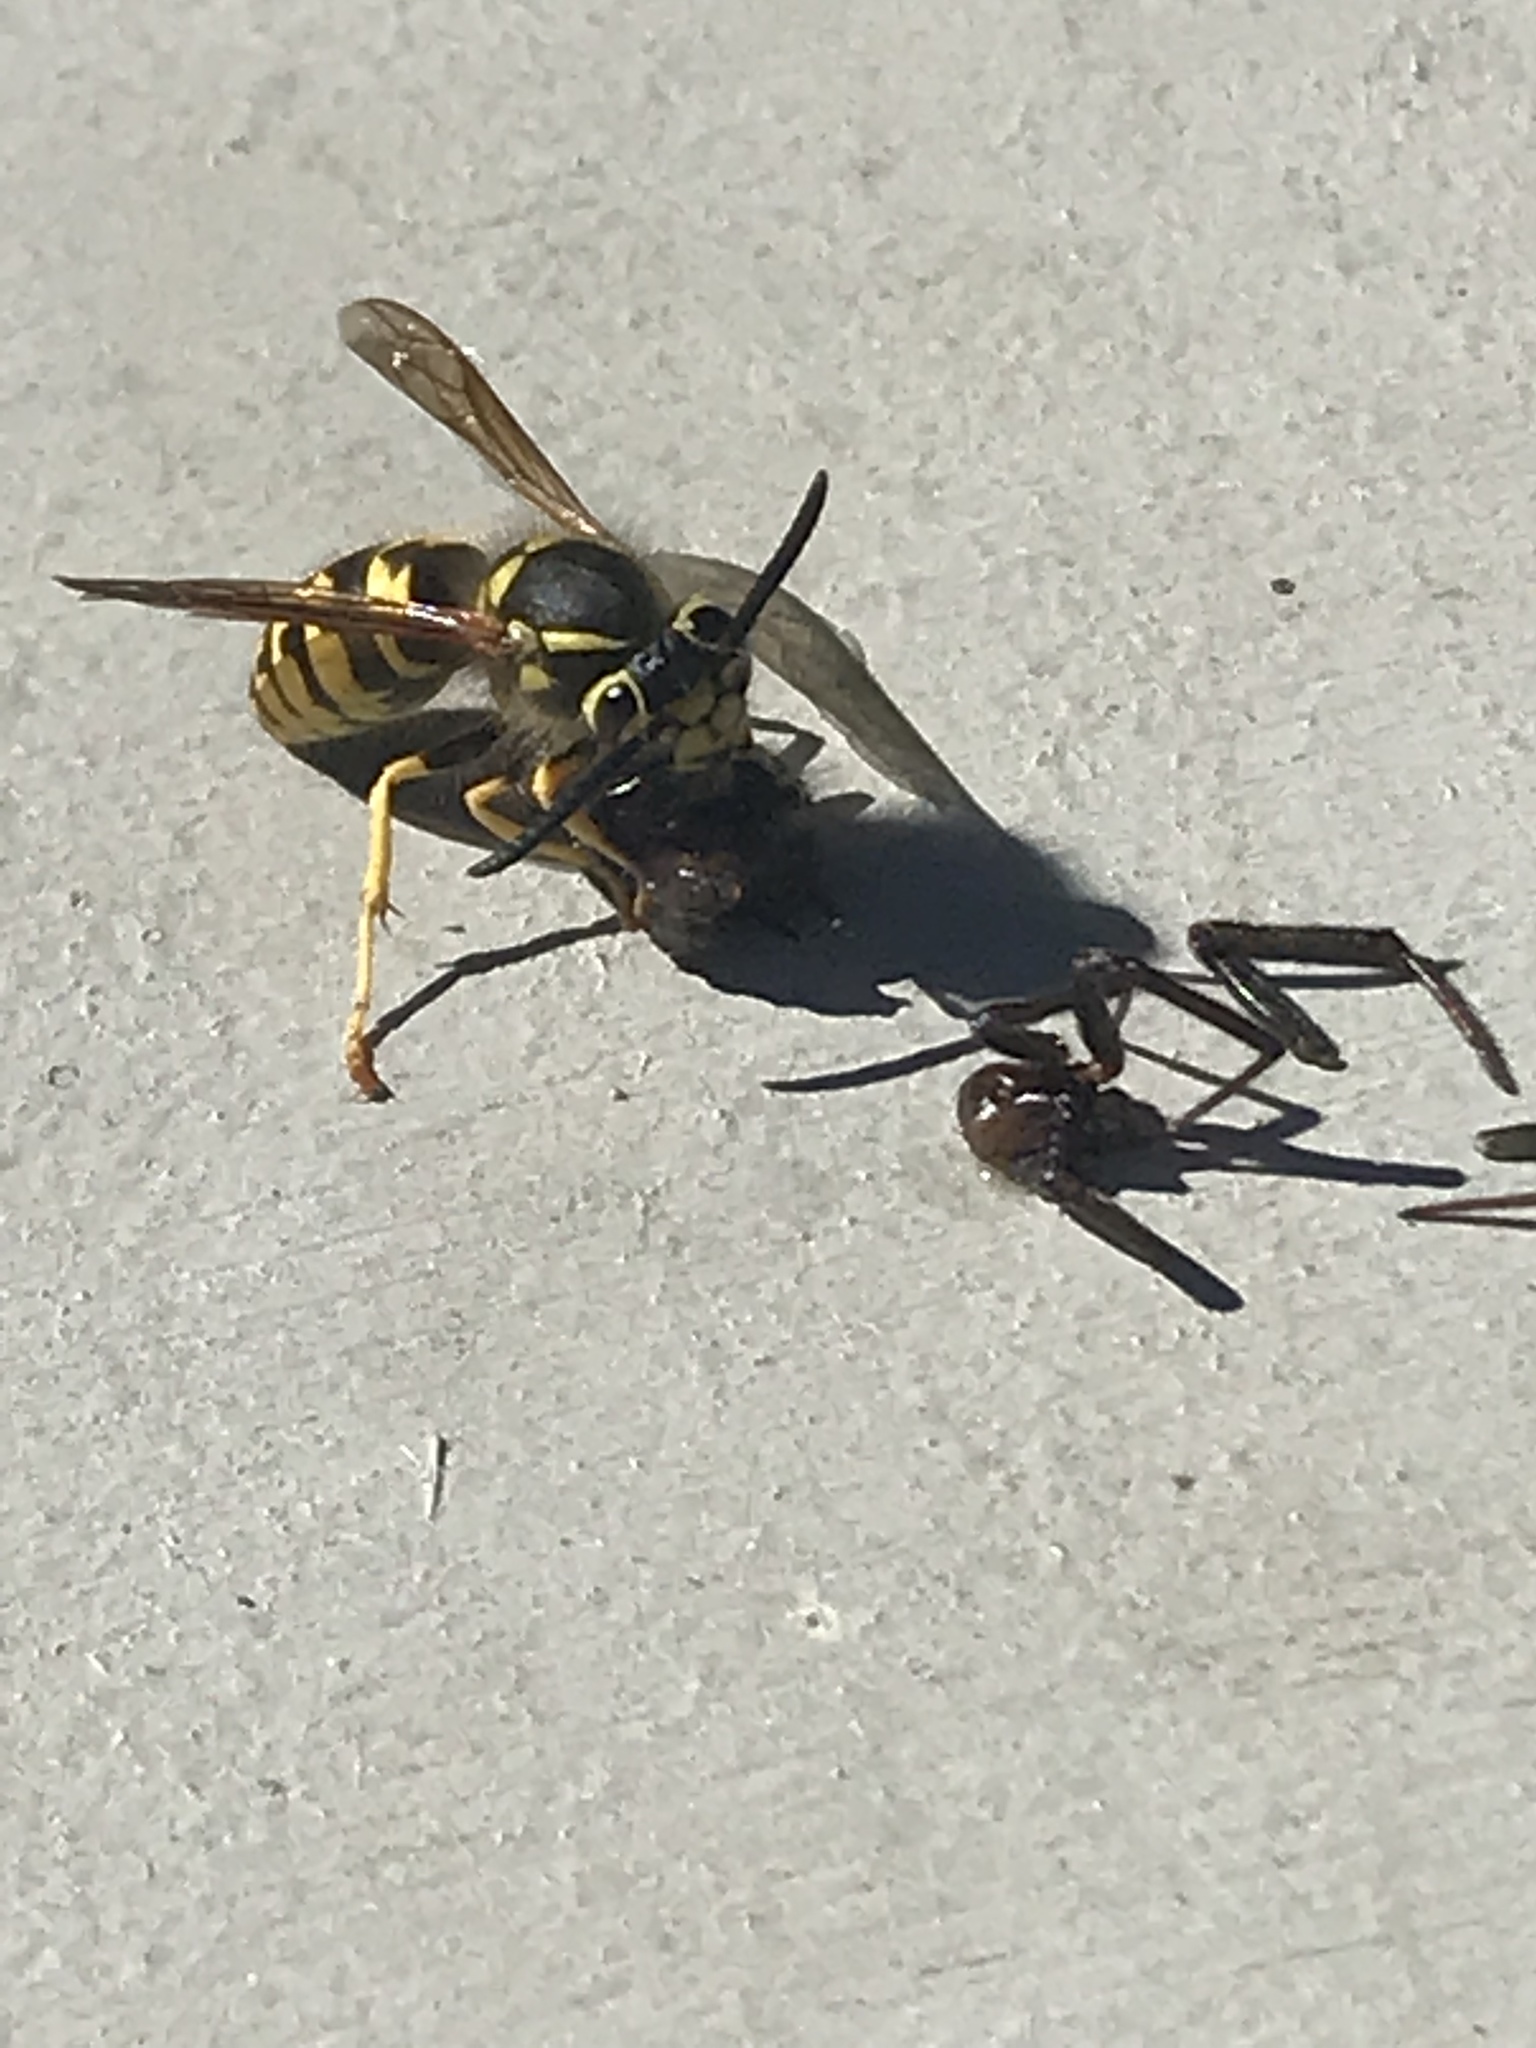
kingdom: Animalia
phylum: Arthropoda
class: Insecta
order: Hymenoptera
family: Vespidae
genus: Vespula
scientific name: Vespula pensylvanica
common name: Western yellowjacket
